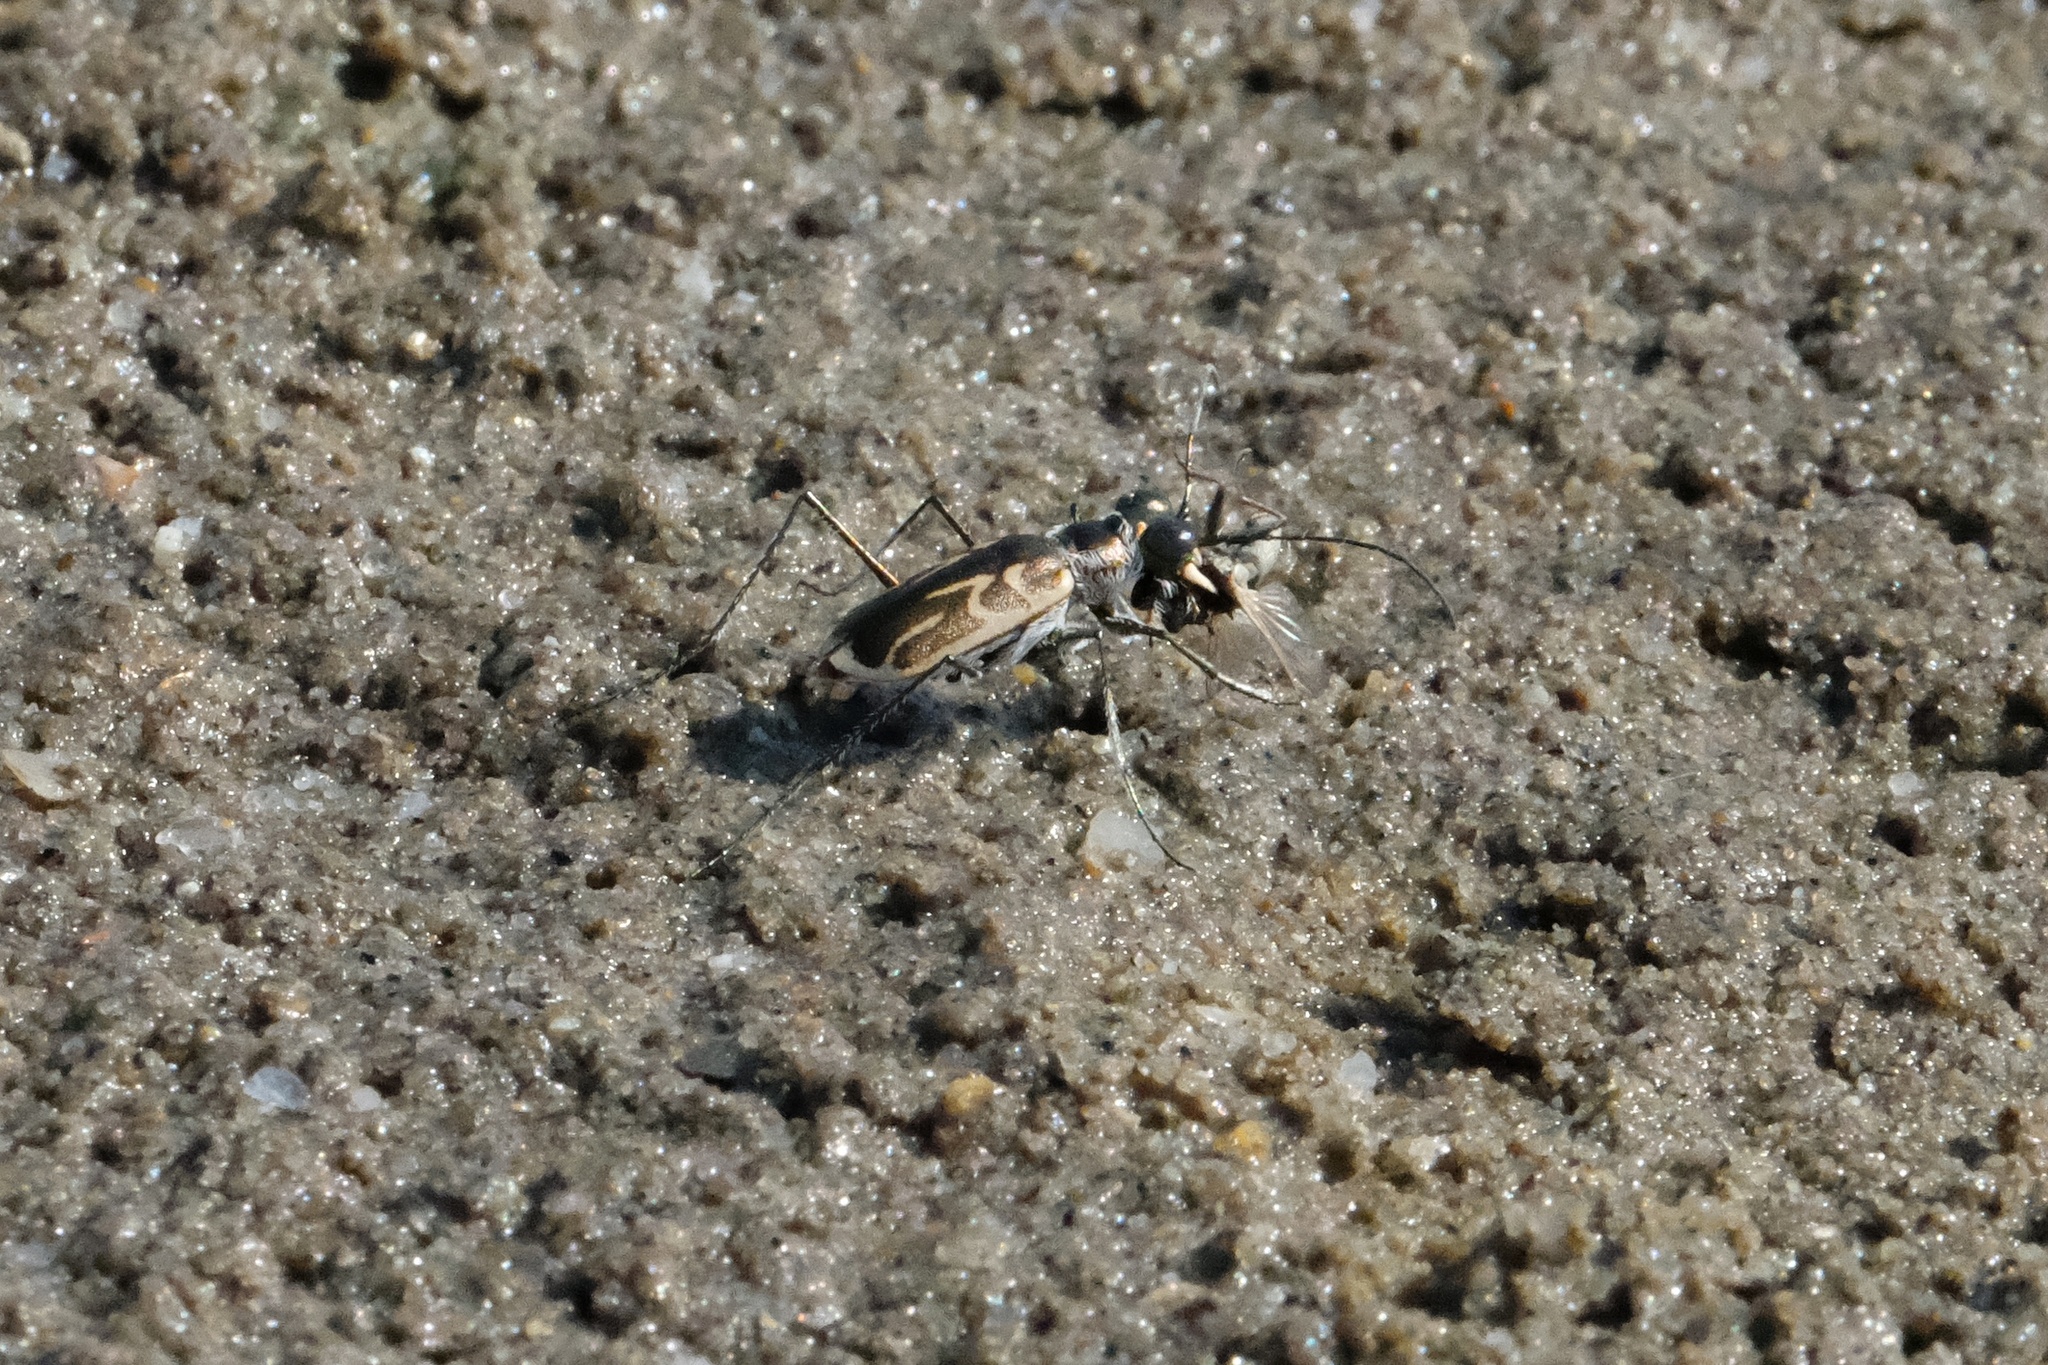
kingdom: Animalia
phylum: Arthropoda
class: Insecta
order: Coleoptera
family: Carabidae
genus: Eunota
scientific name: Eunota gabbii
